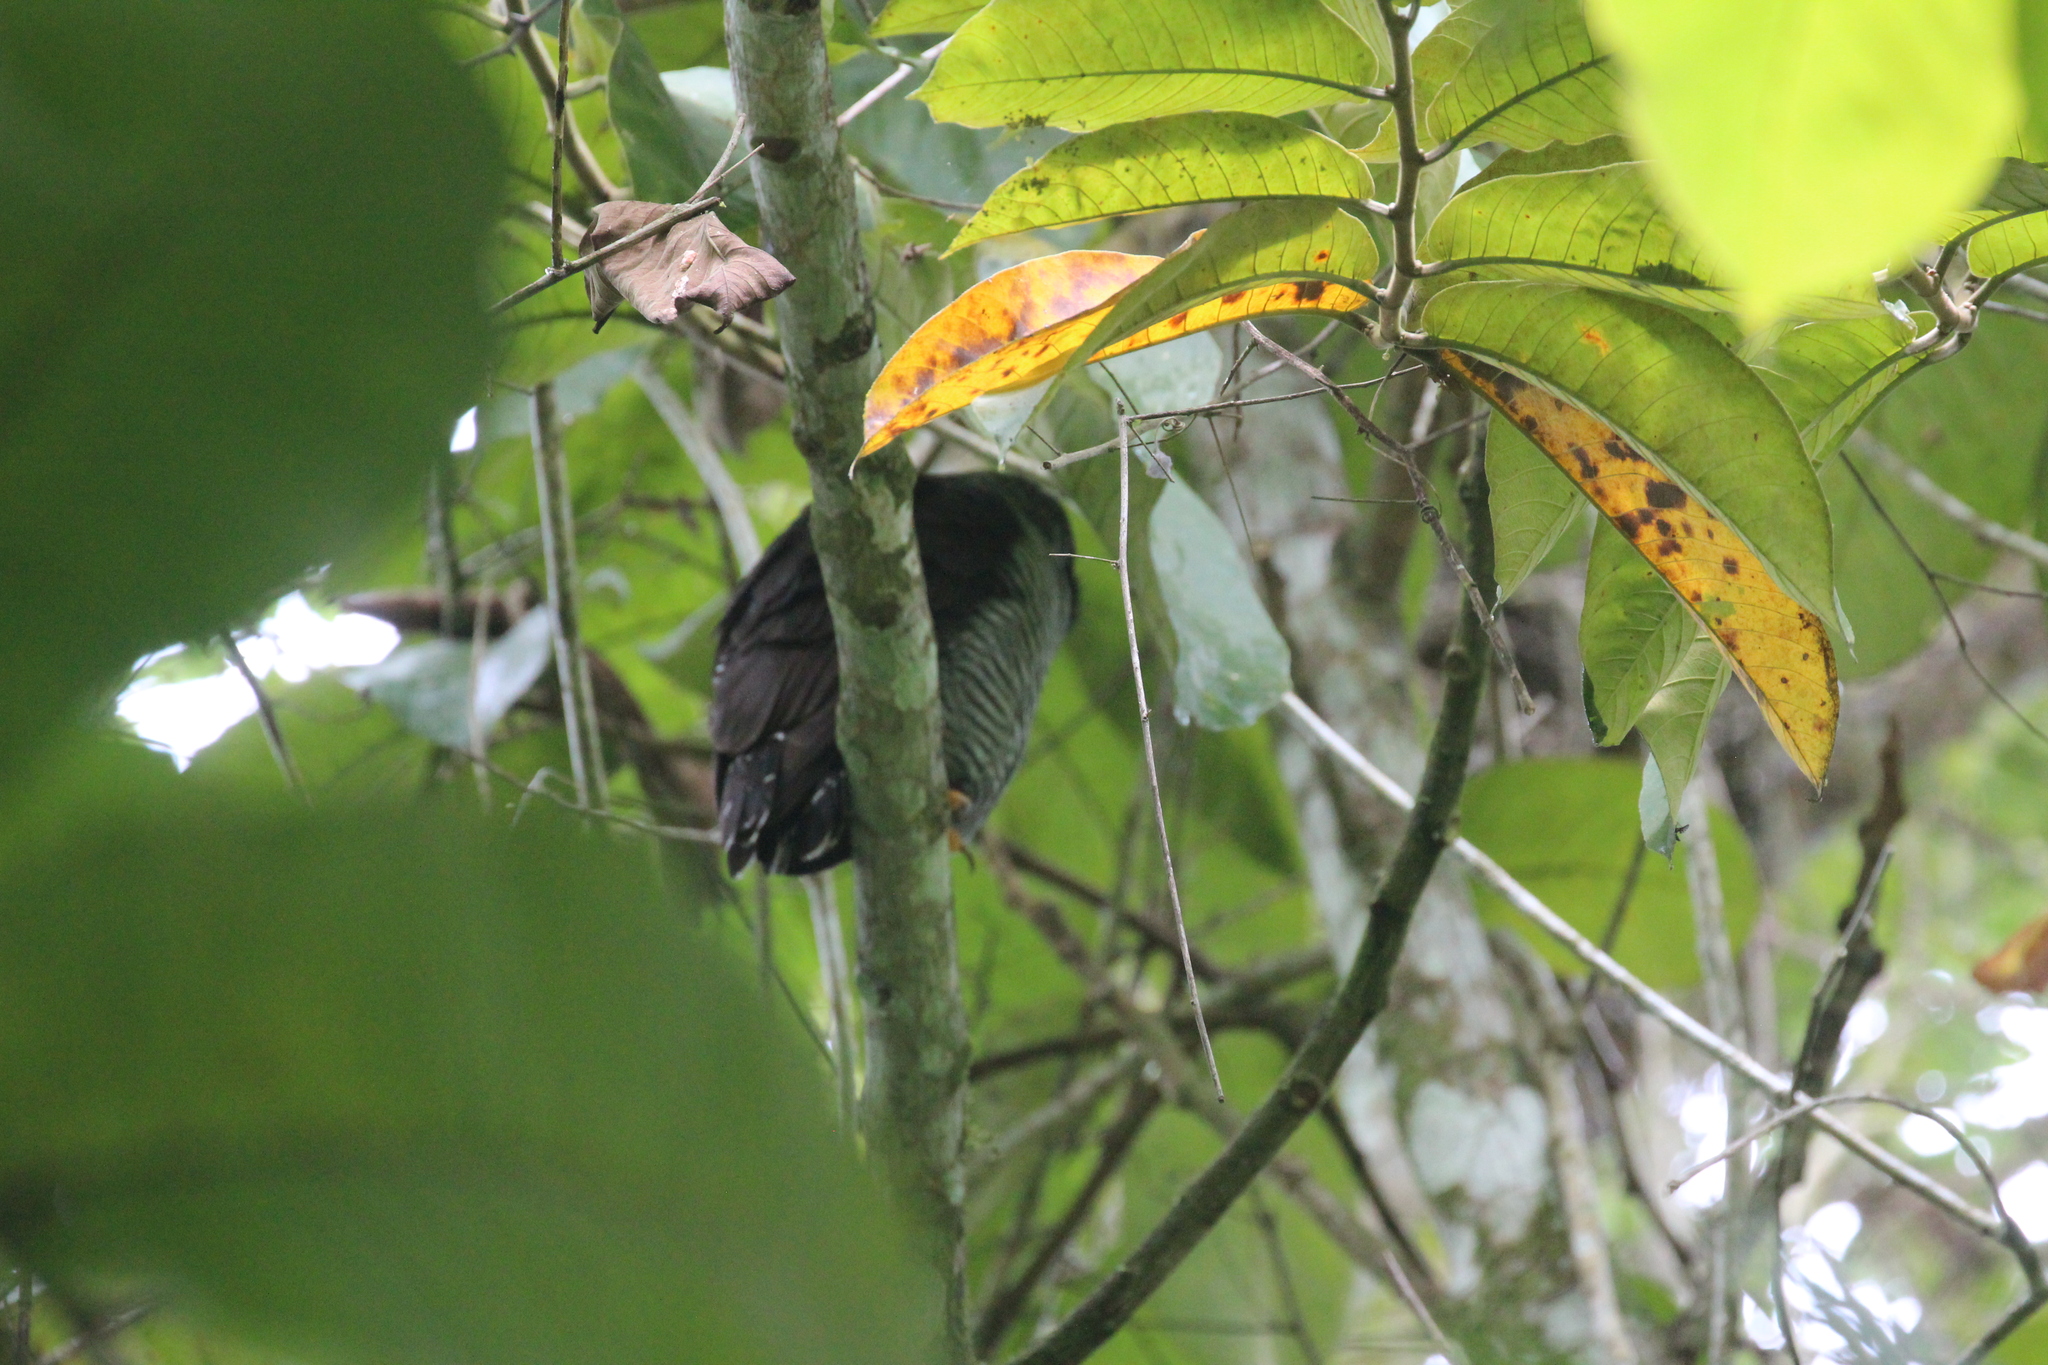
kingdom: Animalia
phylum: Chordata
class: Aves
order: Strigiformes
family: Strigidae
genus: Strix
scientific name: Strix nigrolineata
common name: Black-and-white owl
